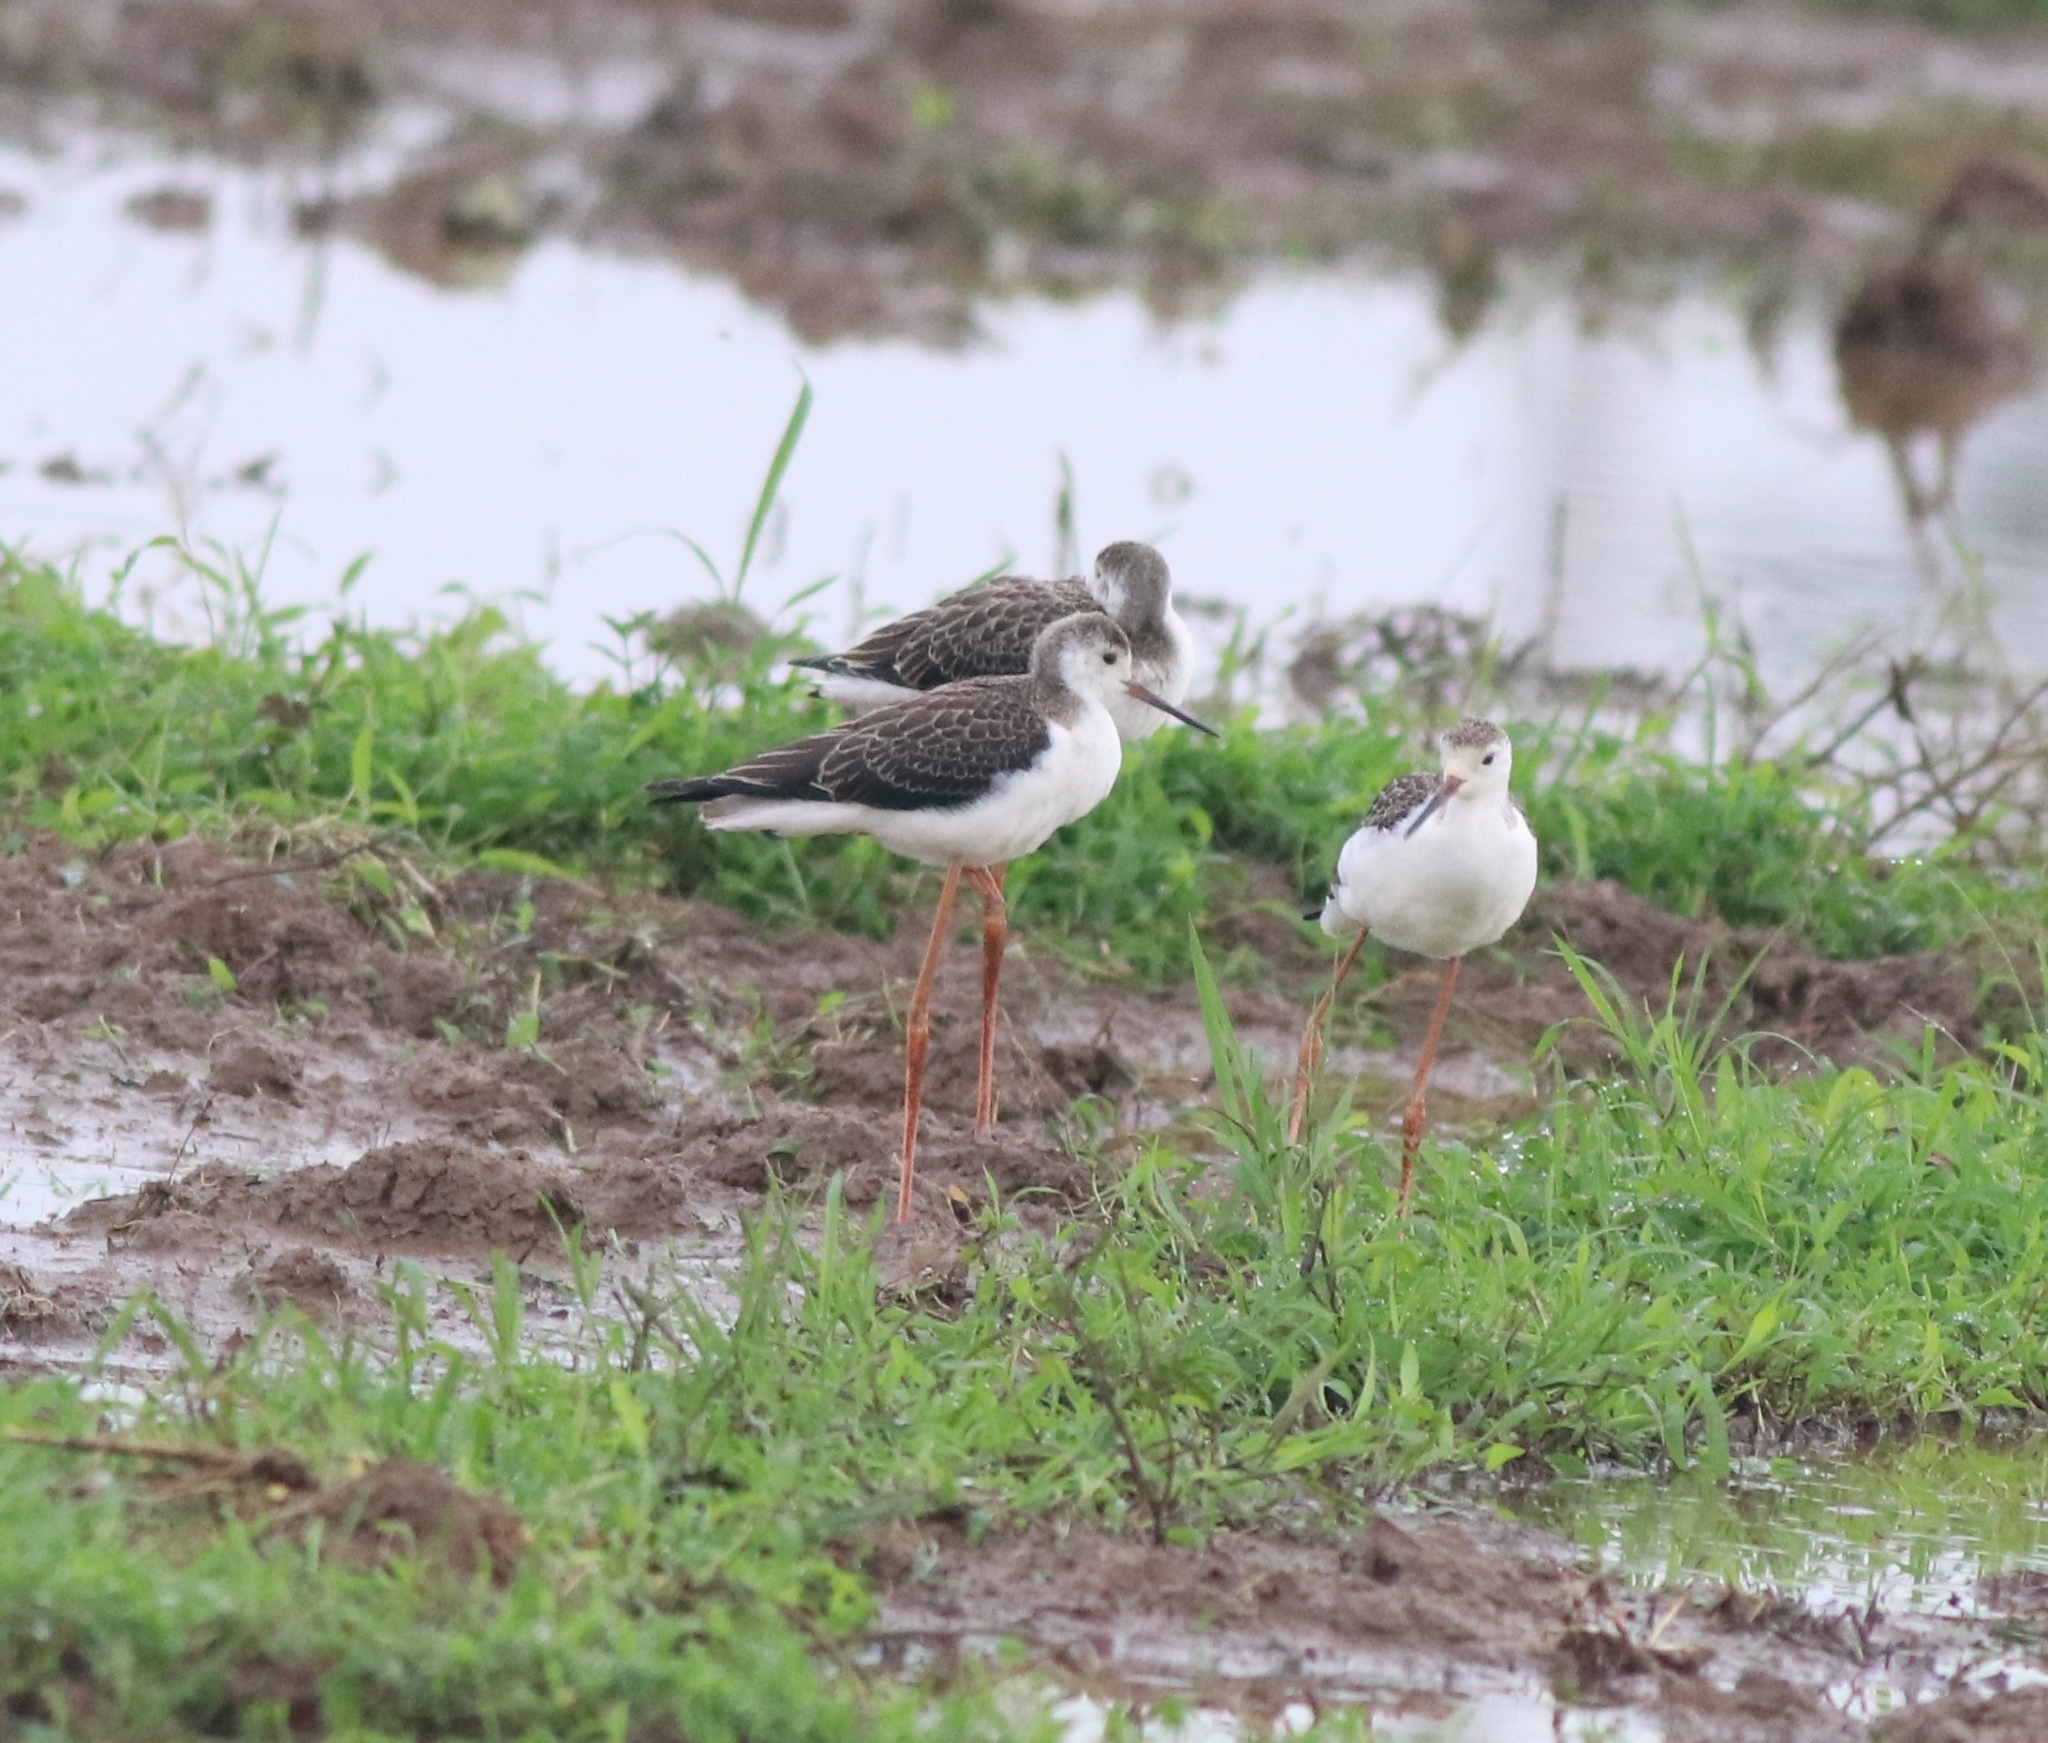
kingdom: Animalia
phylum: Chordata
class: Aves
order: Charadriiformes
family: Recurvirostridae
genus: Himantopus
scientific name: Himantopus himantopus
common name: Black-winged stilt
